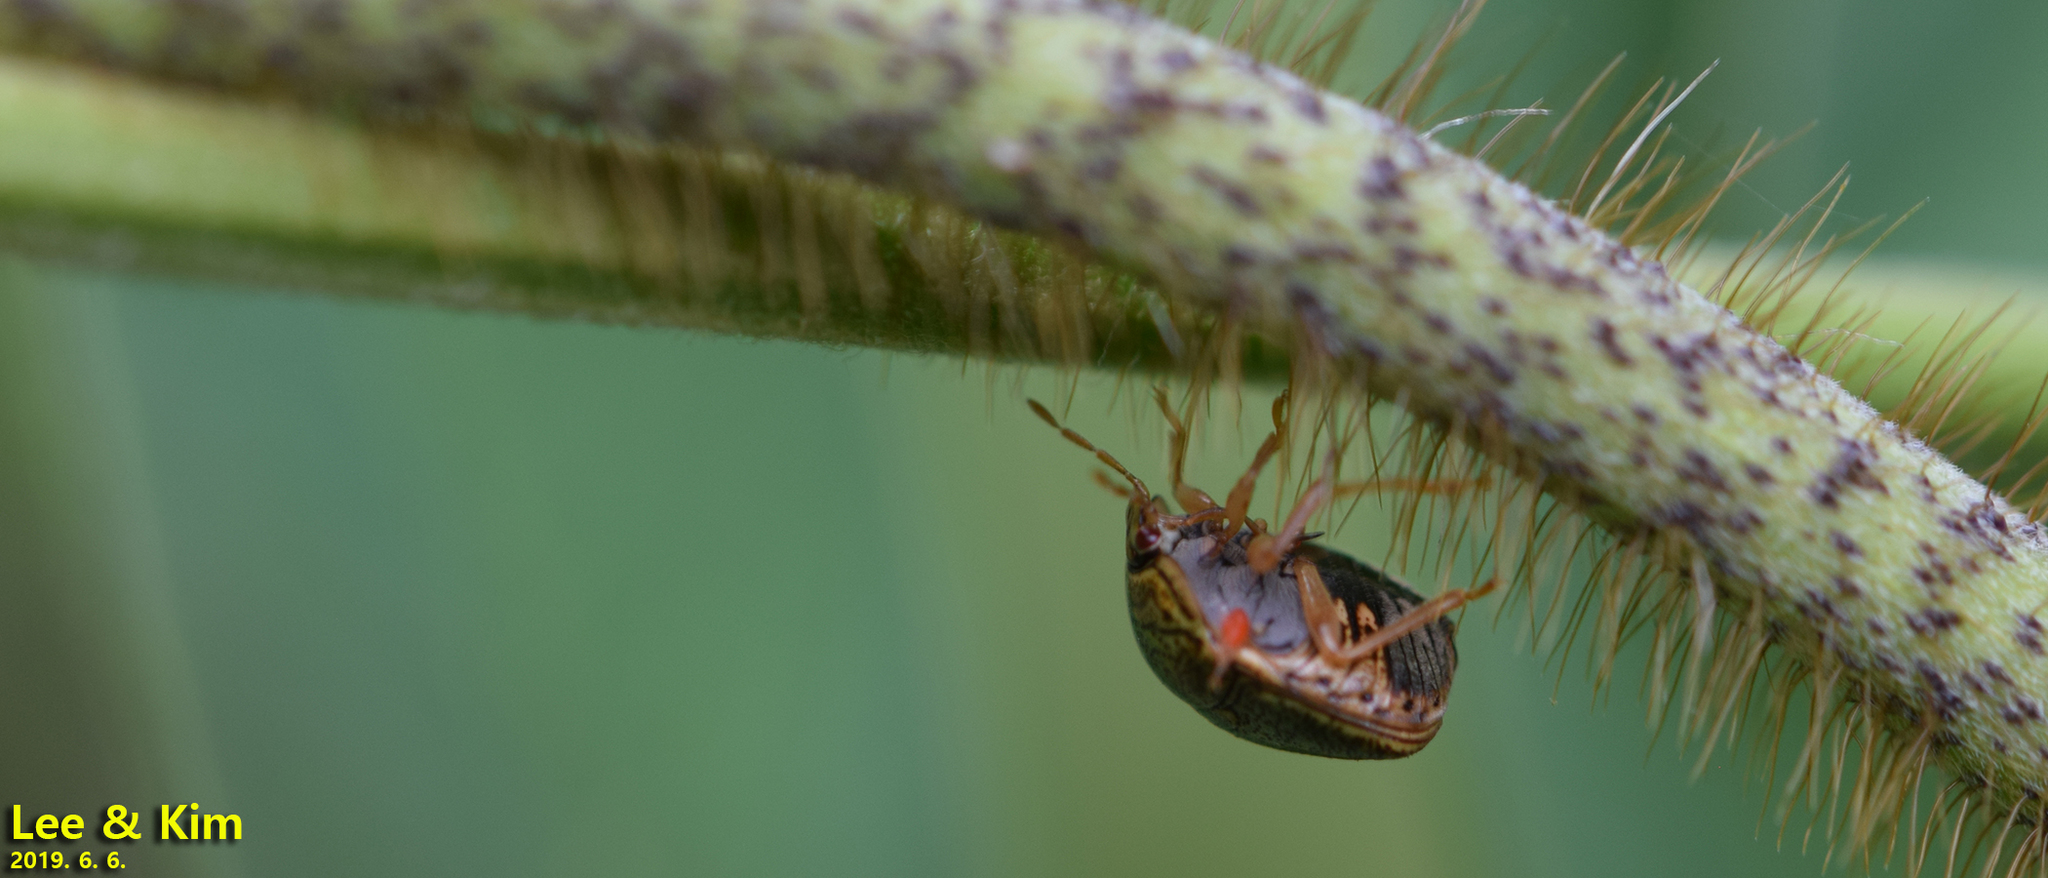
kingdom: Animalia
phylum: Arthropoda
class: Insecta
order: Hemiptera
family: Plataspidae
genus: Megacopta
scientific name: Megacopta cribraria
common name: Bean plataspid
